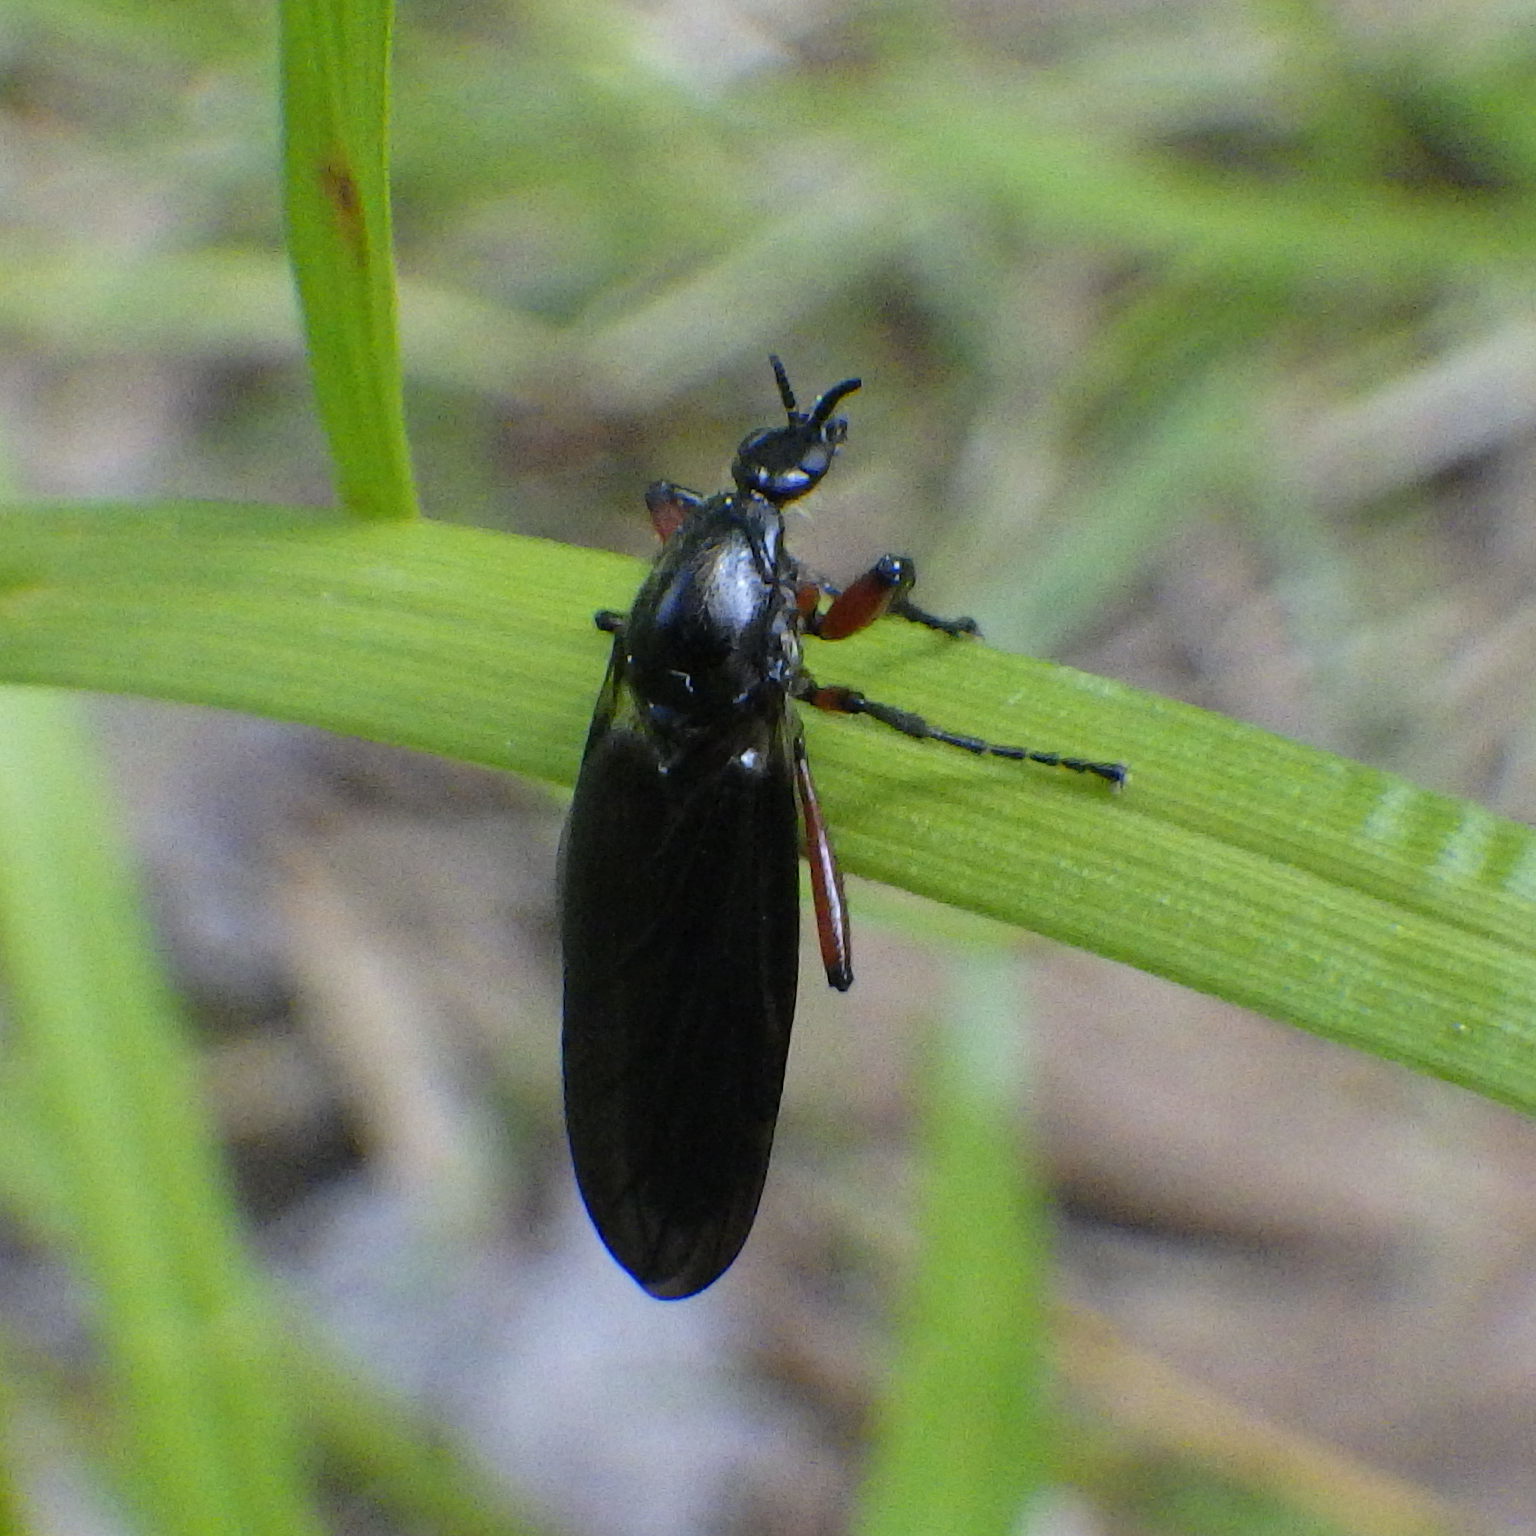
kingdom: Animalia
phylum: Arthropoda
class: Insecta
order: Diptera
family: Bibionidae
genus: Bibio
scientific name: Bibio vestitus
